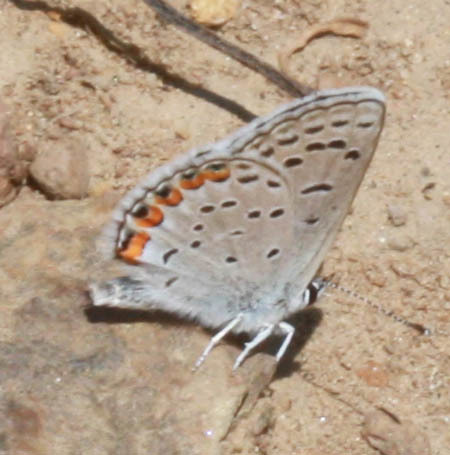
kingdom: Animalia
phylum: Arthropoda
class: Insecta
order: Lepidoptera
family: Lycaenidae
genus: Icaricia
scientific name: Icaricia acmon
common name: Acmon blue
